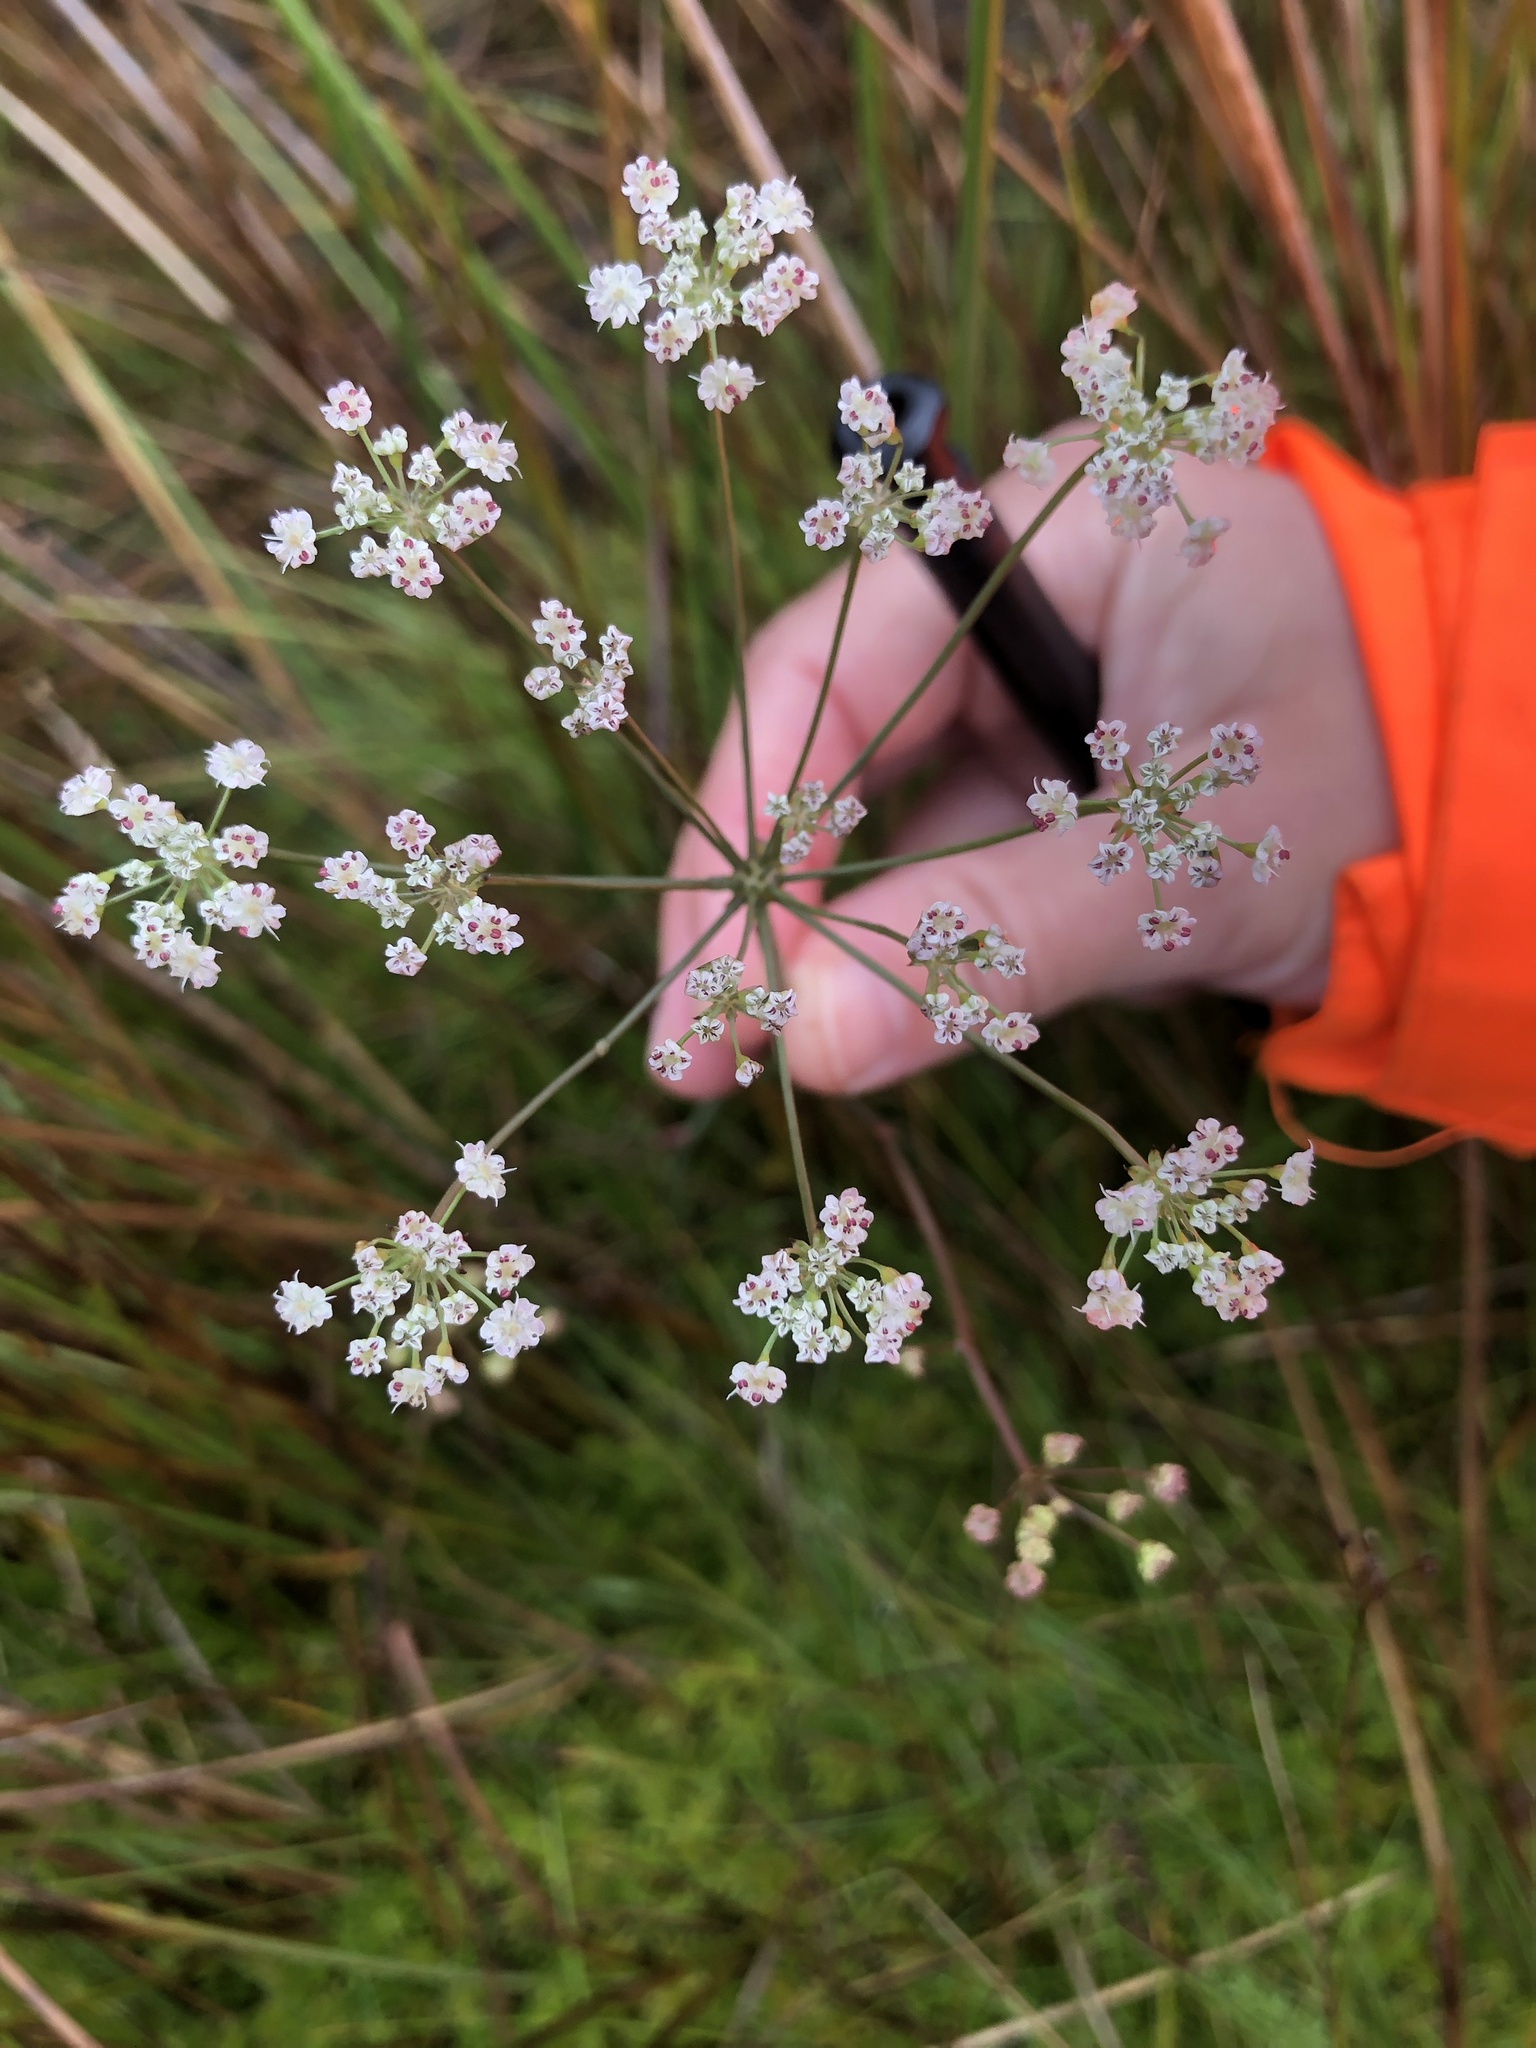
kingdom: Plantae
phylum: Tracheophyta
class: Magnoliopsida
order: Apiales
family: Apiaceae
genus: Trocdaris
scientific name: Trocdaris verticillatum
